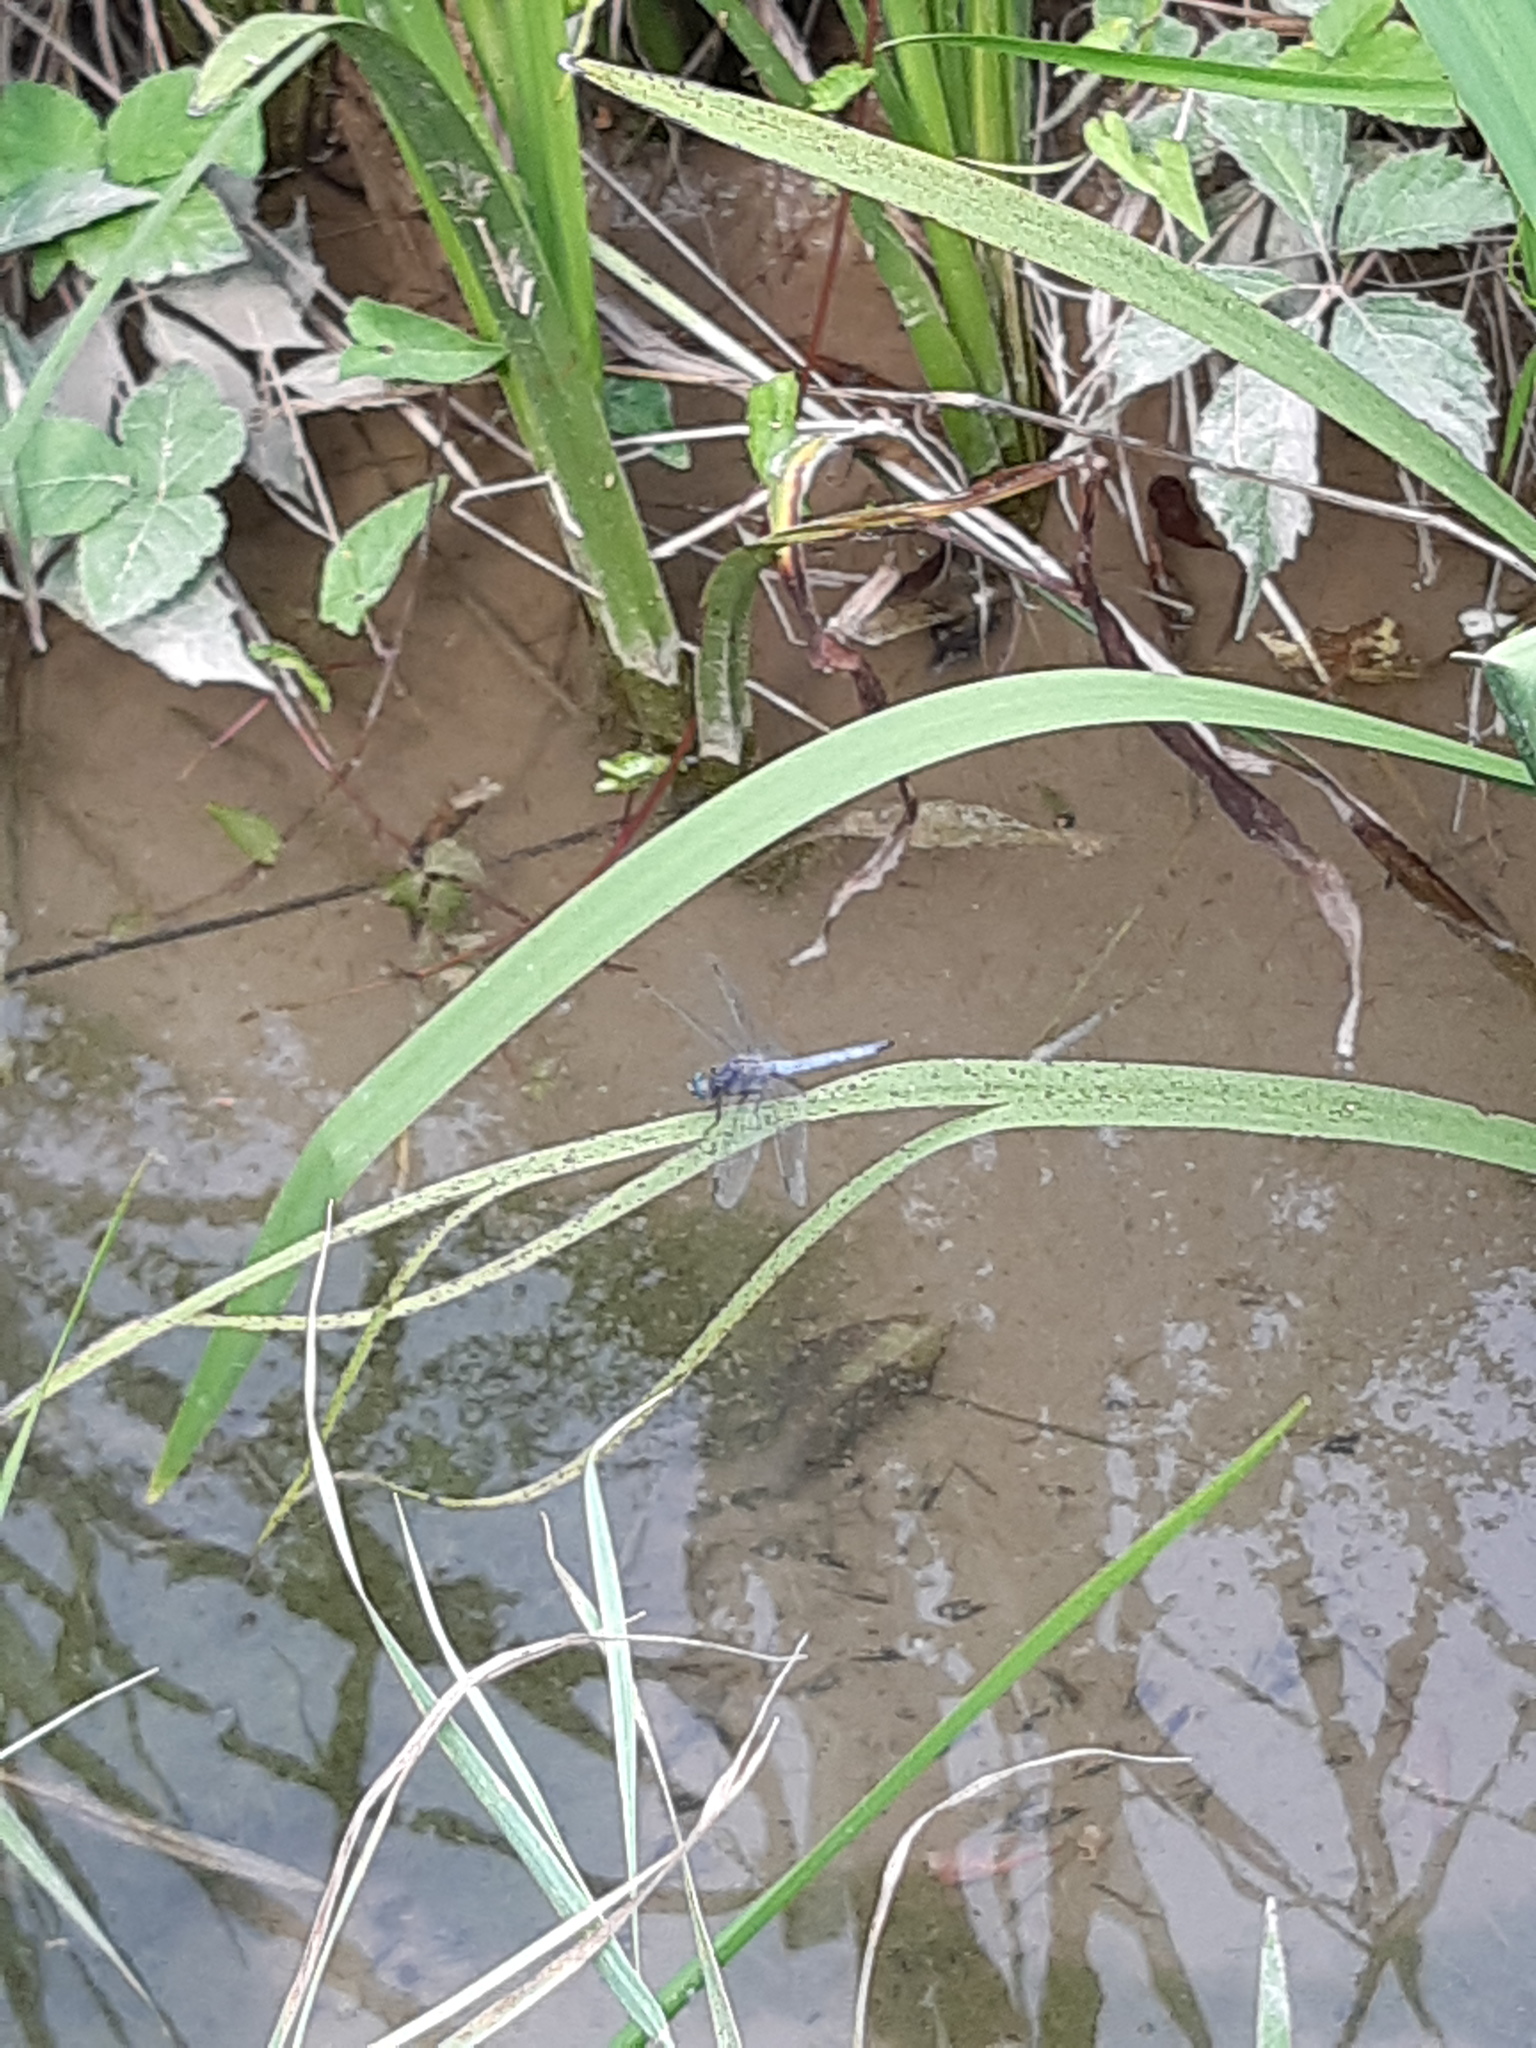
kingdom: Animalia
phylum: Arthropoda
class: Insecta
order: Odonata
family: Libellulidae
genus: Orthetrum
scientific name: Orthetrum coerulescens
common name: Keeled skimmer
